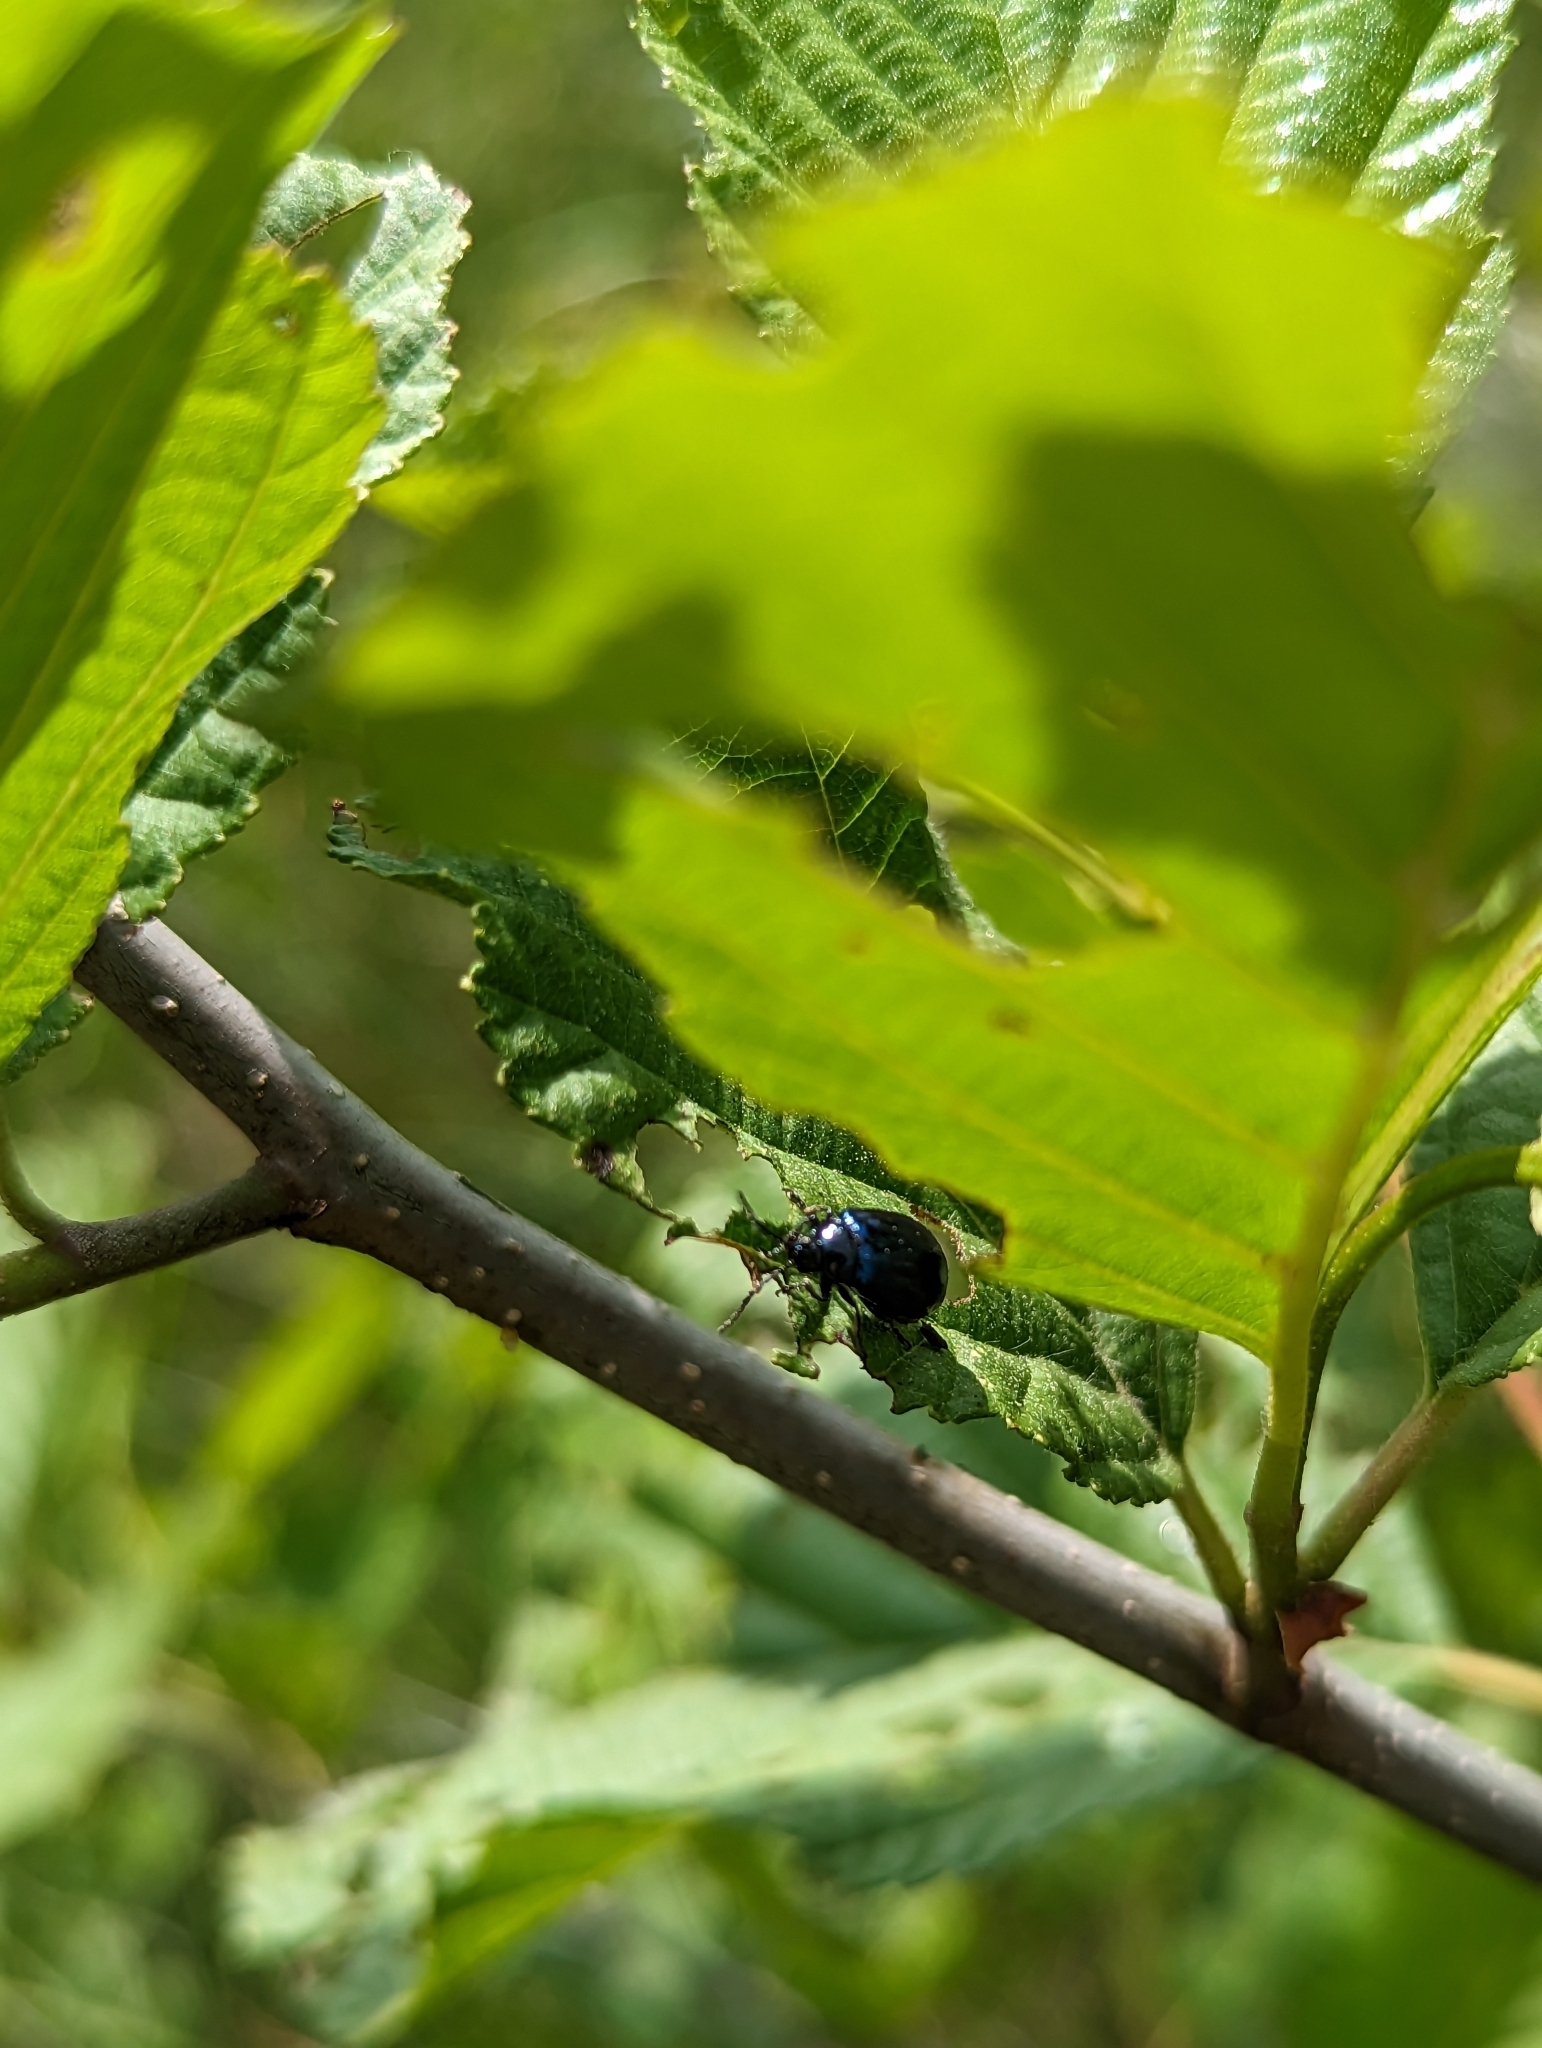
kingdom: Animalia
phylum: Arthropoda
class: Insecta
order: Coleoptera
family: Chrysomelidae
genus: Agelastica
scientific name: Agelastica alni
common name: Alder leaf beetle
